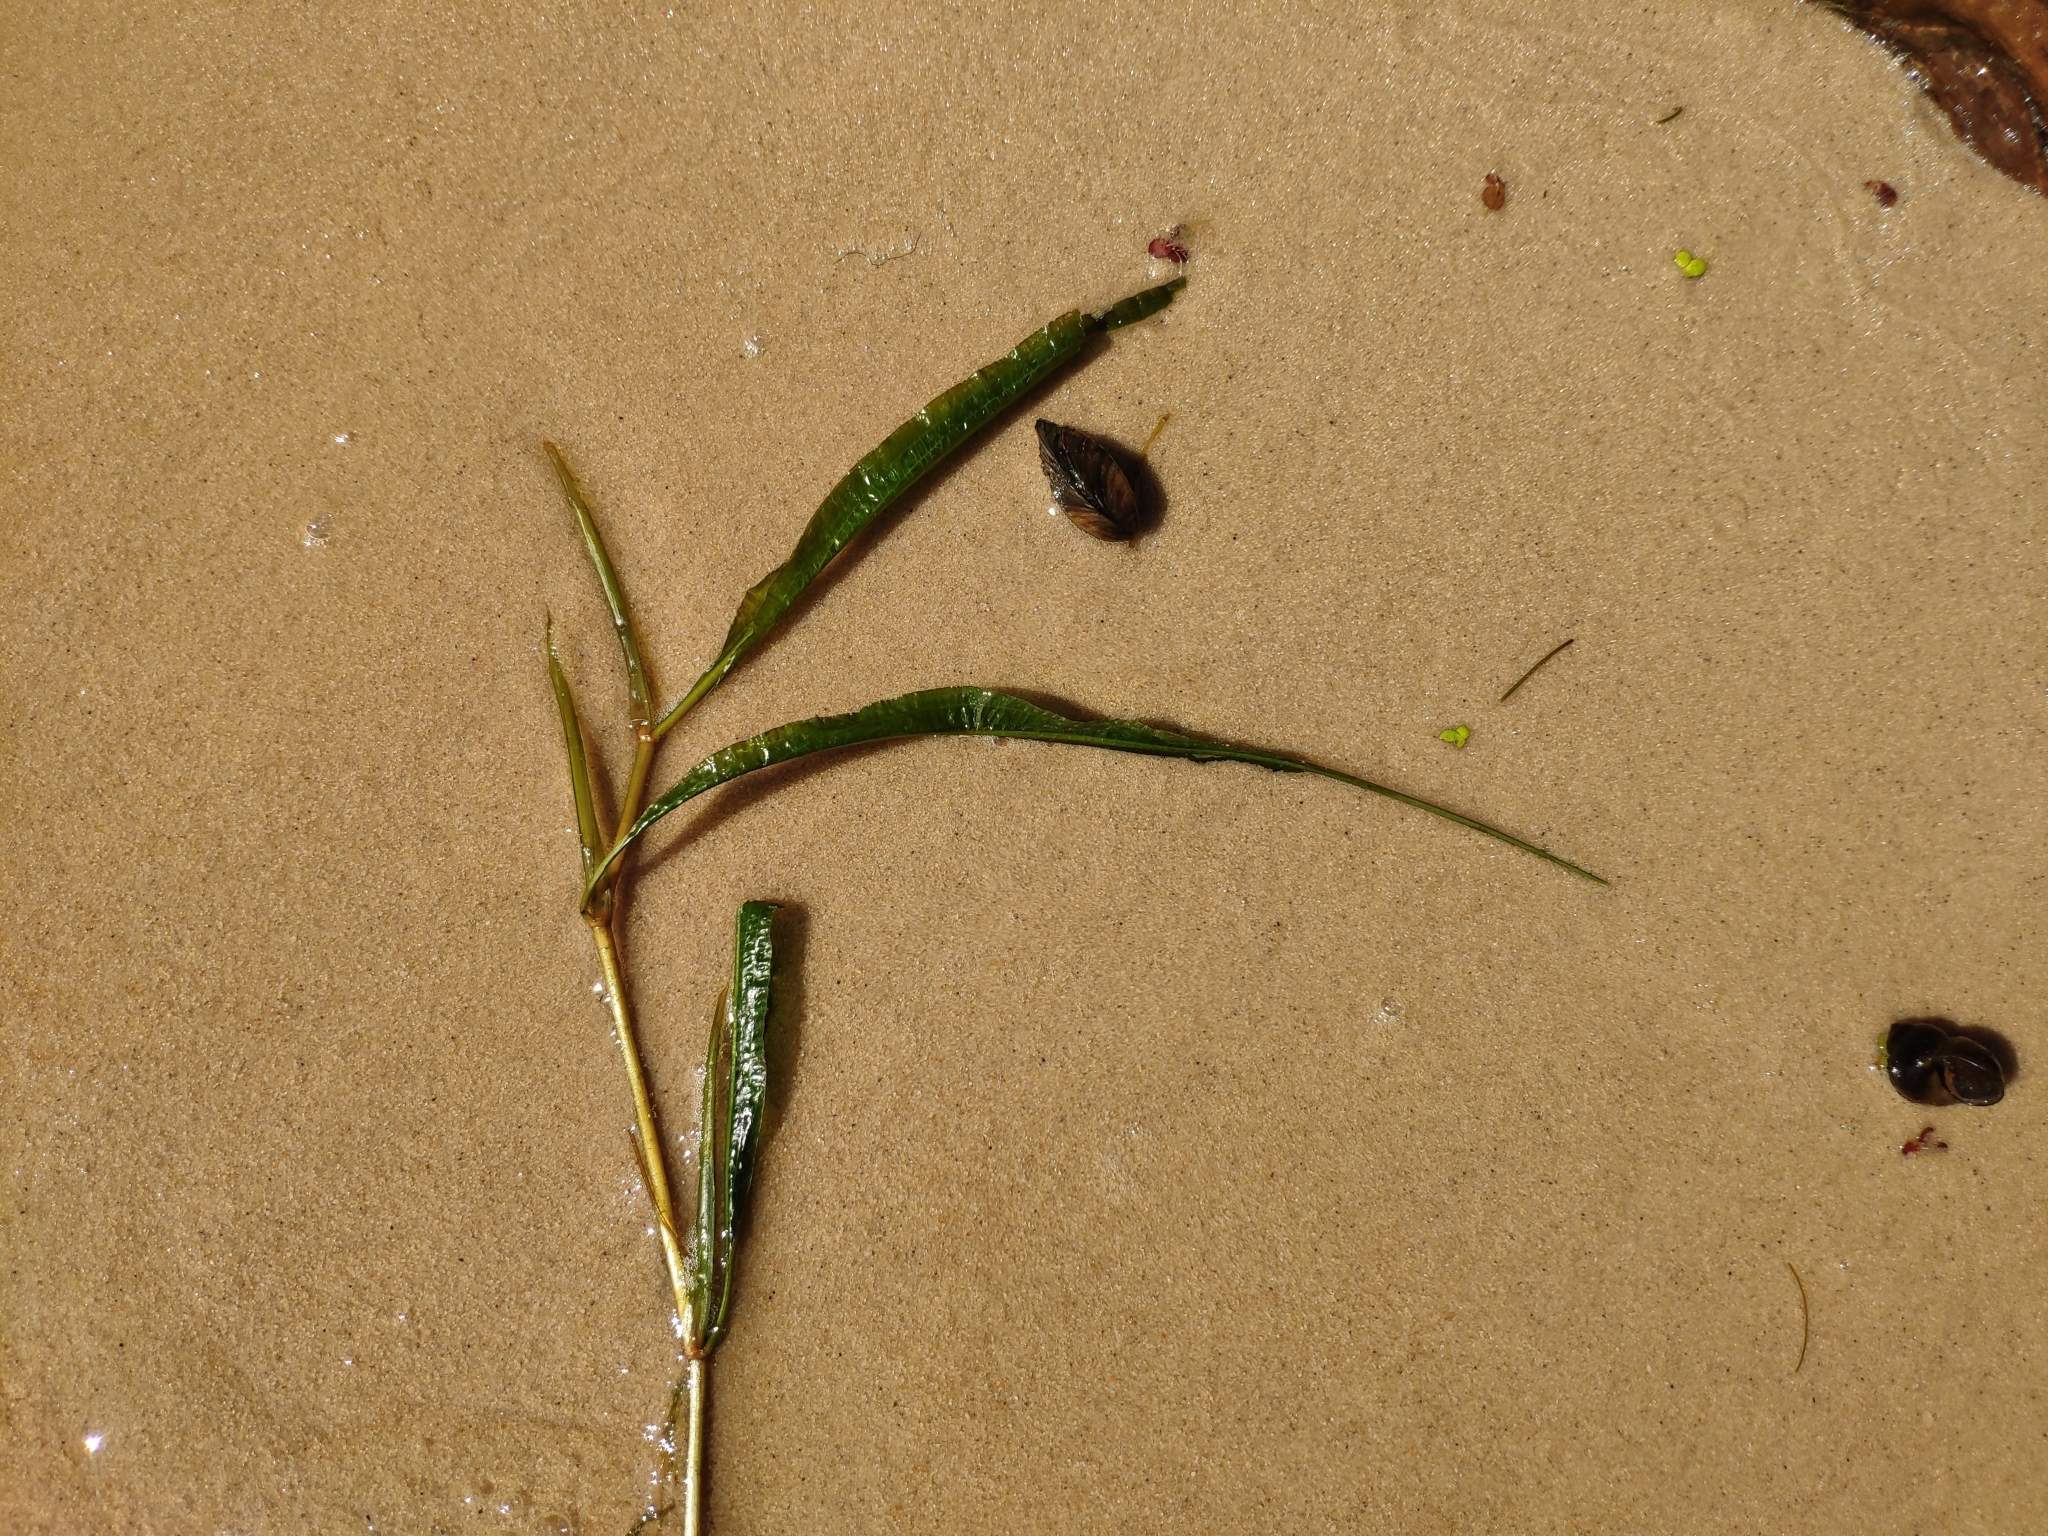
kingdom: Plantae
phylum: Tracheophyta
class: Liliopsida
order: Alismatales
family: Potamogetonaceae
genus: Potamogeton
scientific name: Potamogeton lucens
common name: Shining pondweed
